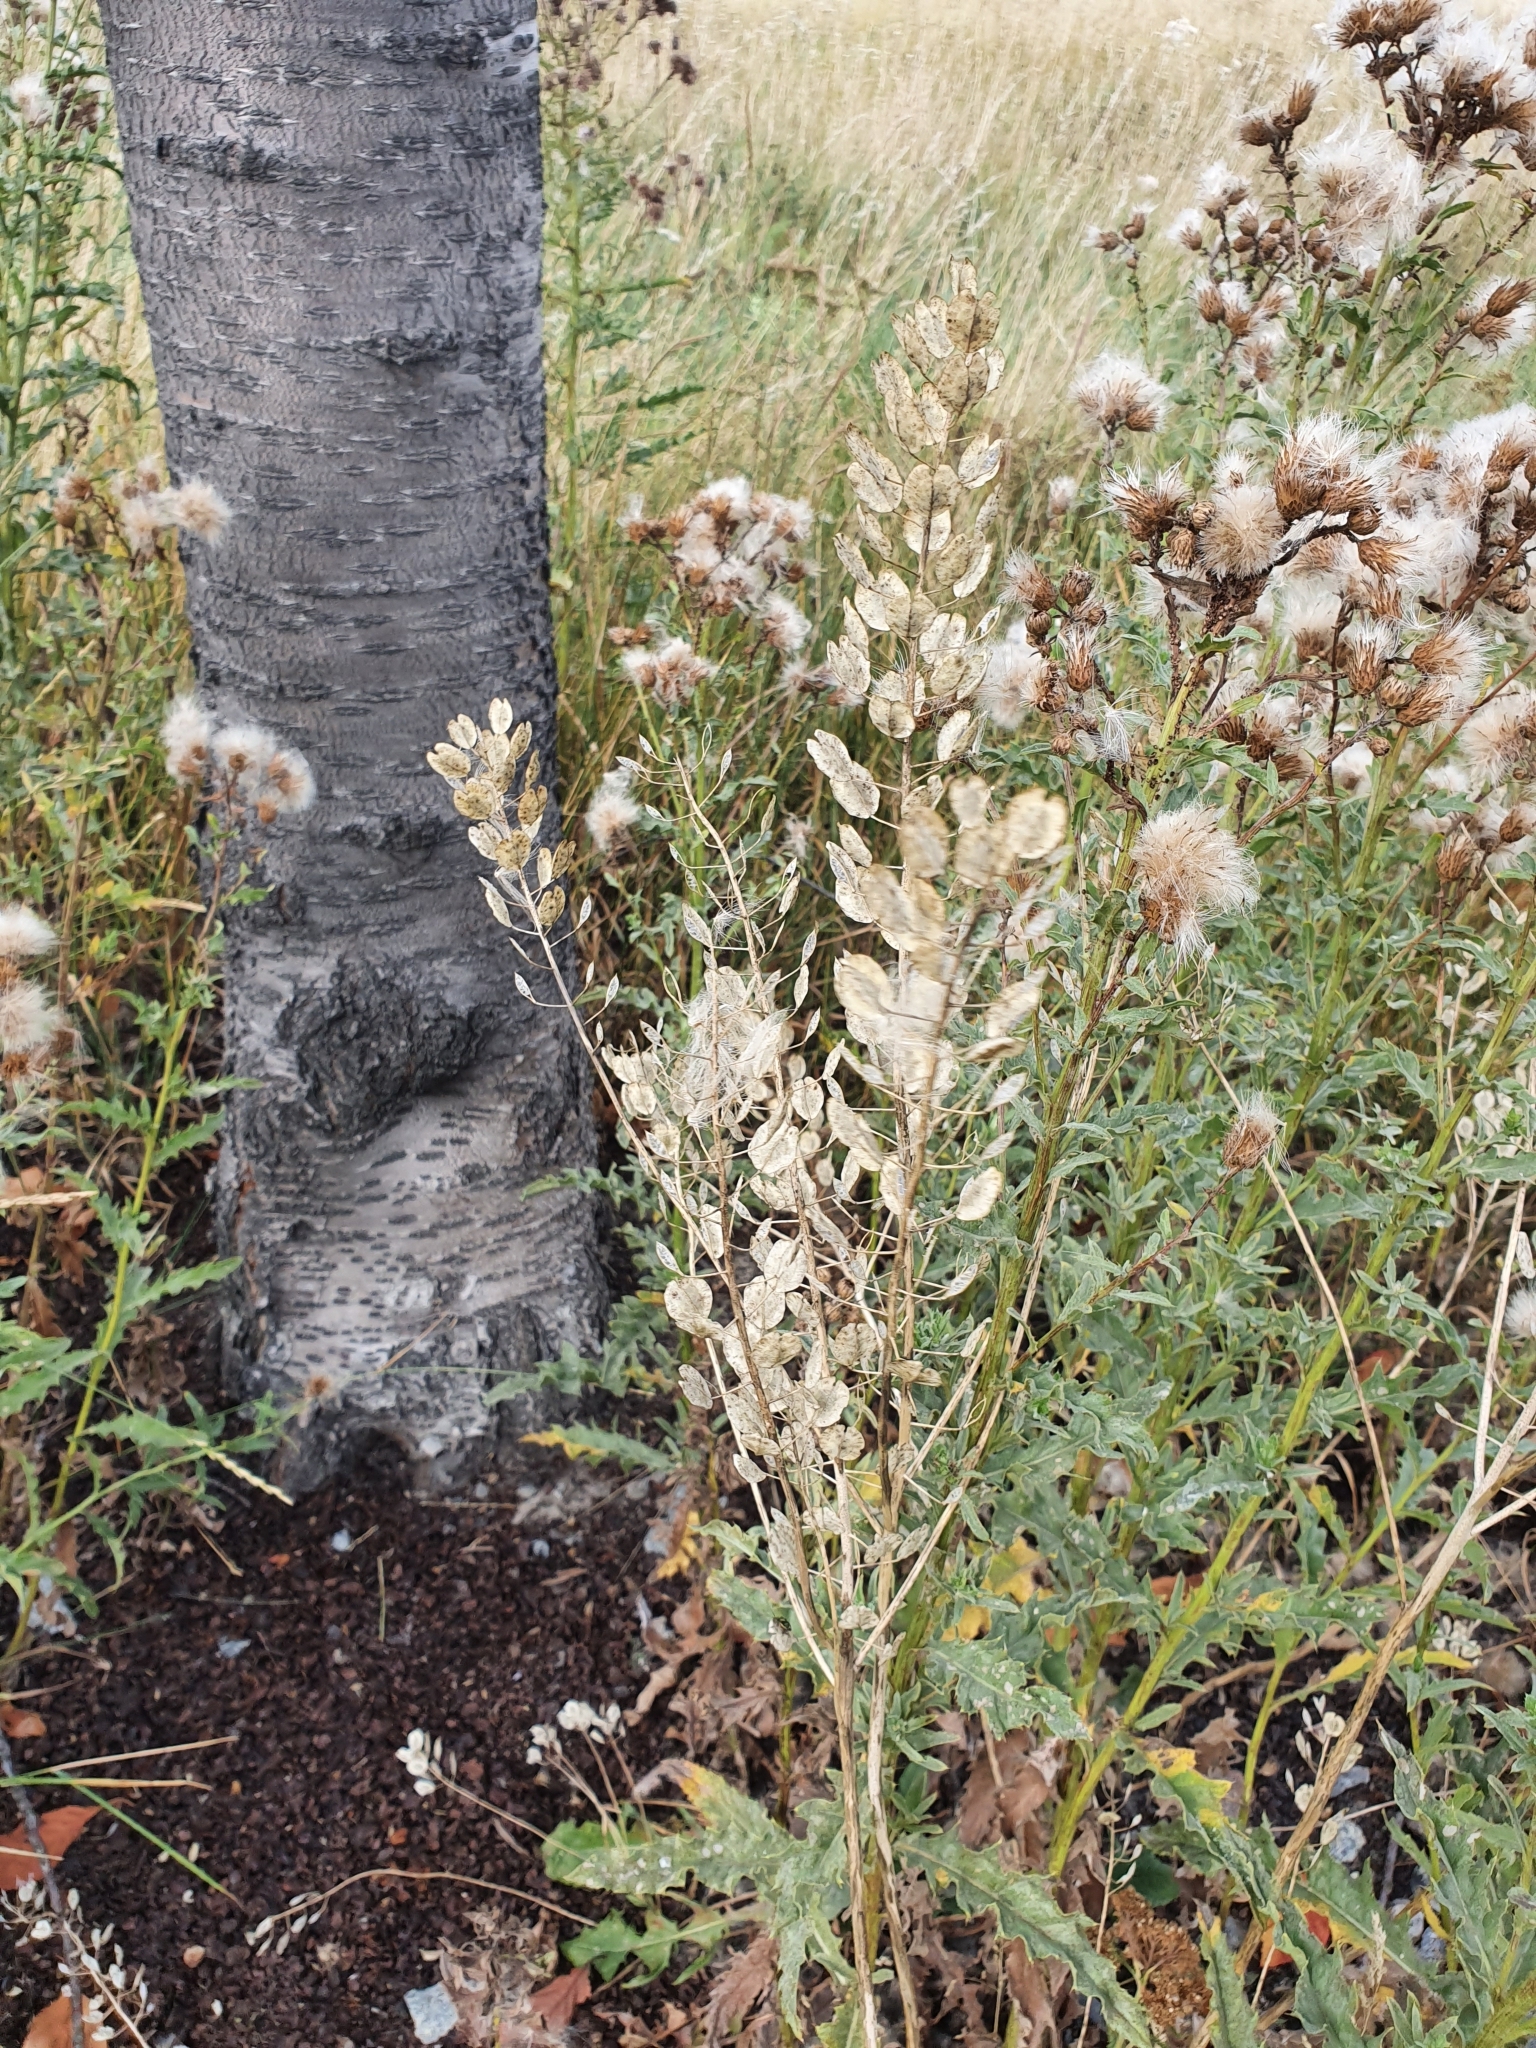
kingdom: Plantae
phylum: Tracheophyta
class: Magnoliopsida
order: Brassicales
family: Brassicaceae
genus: Thlaspi
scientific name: Thlaspi arvense
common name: Field pennycress
